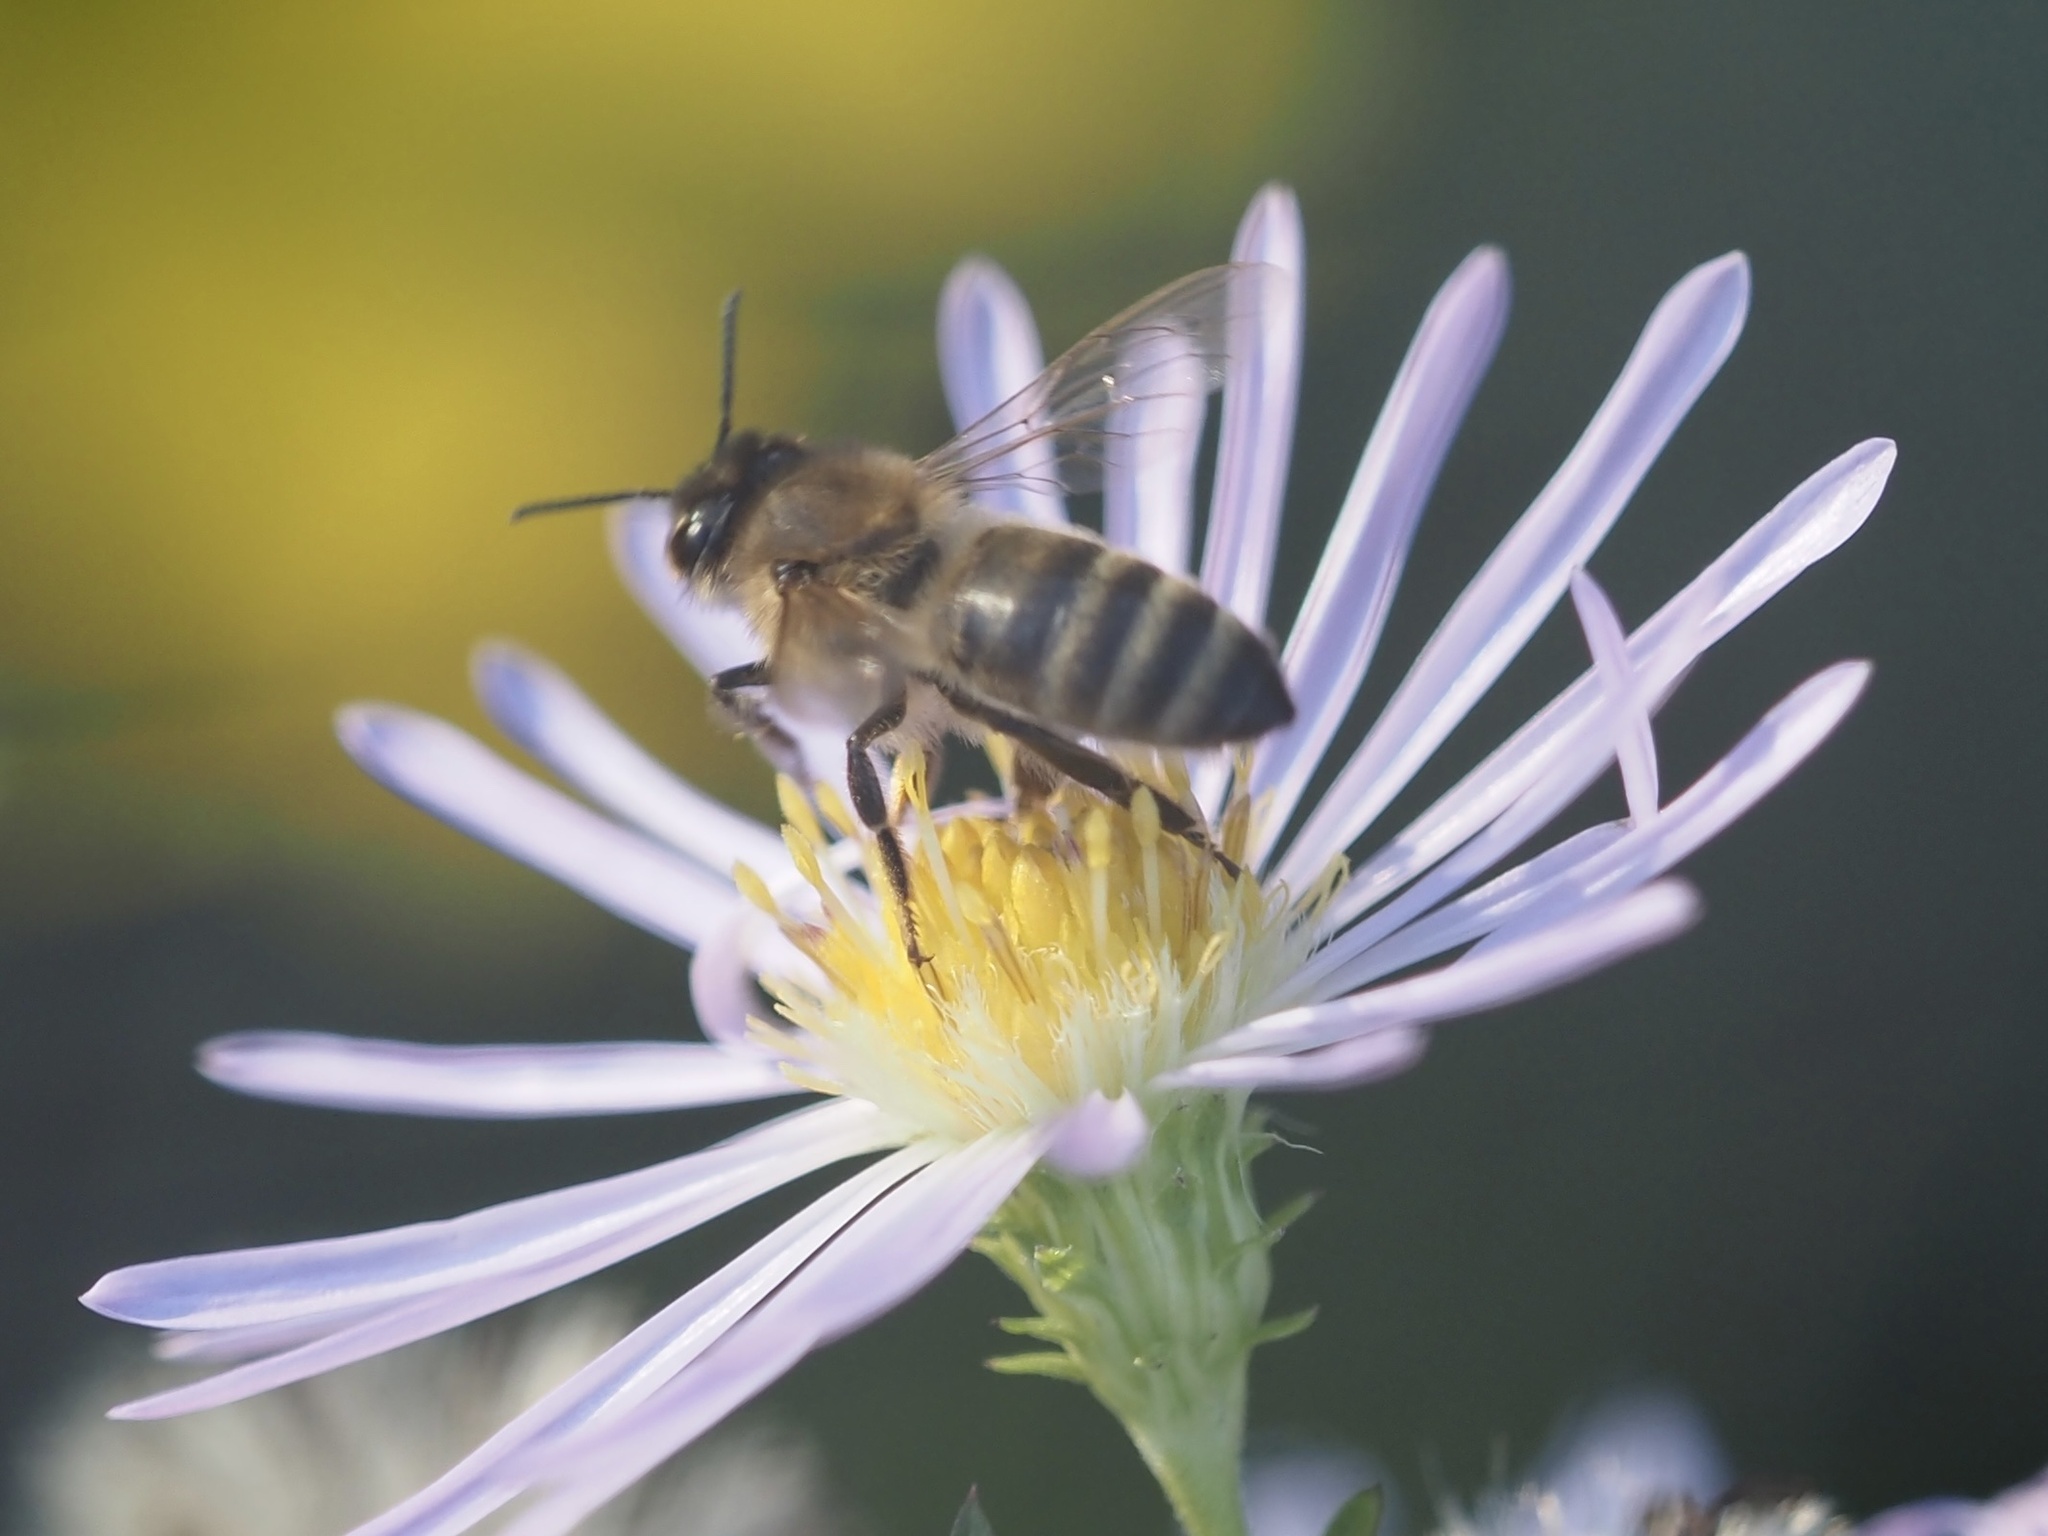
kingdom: Animalia
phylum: Arthropoda
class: Insecta
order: Hymenoptera
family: Apidae
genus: Apis
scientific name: Apis mellifera
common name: Honey bee
